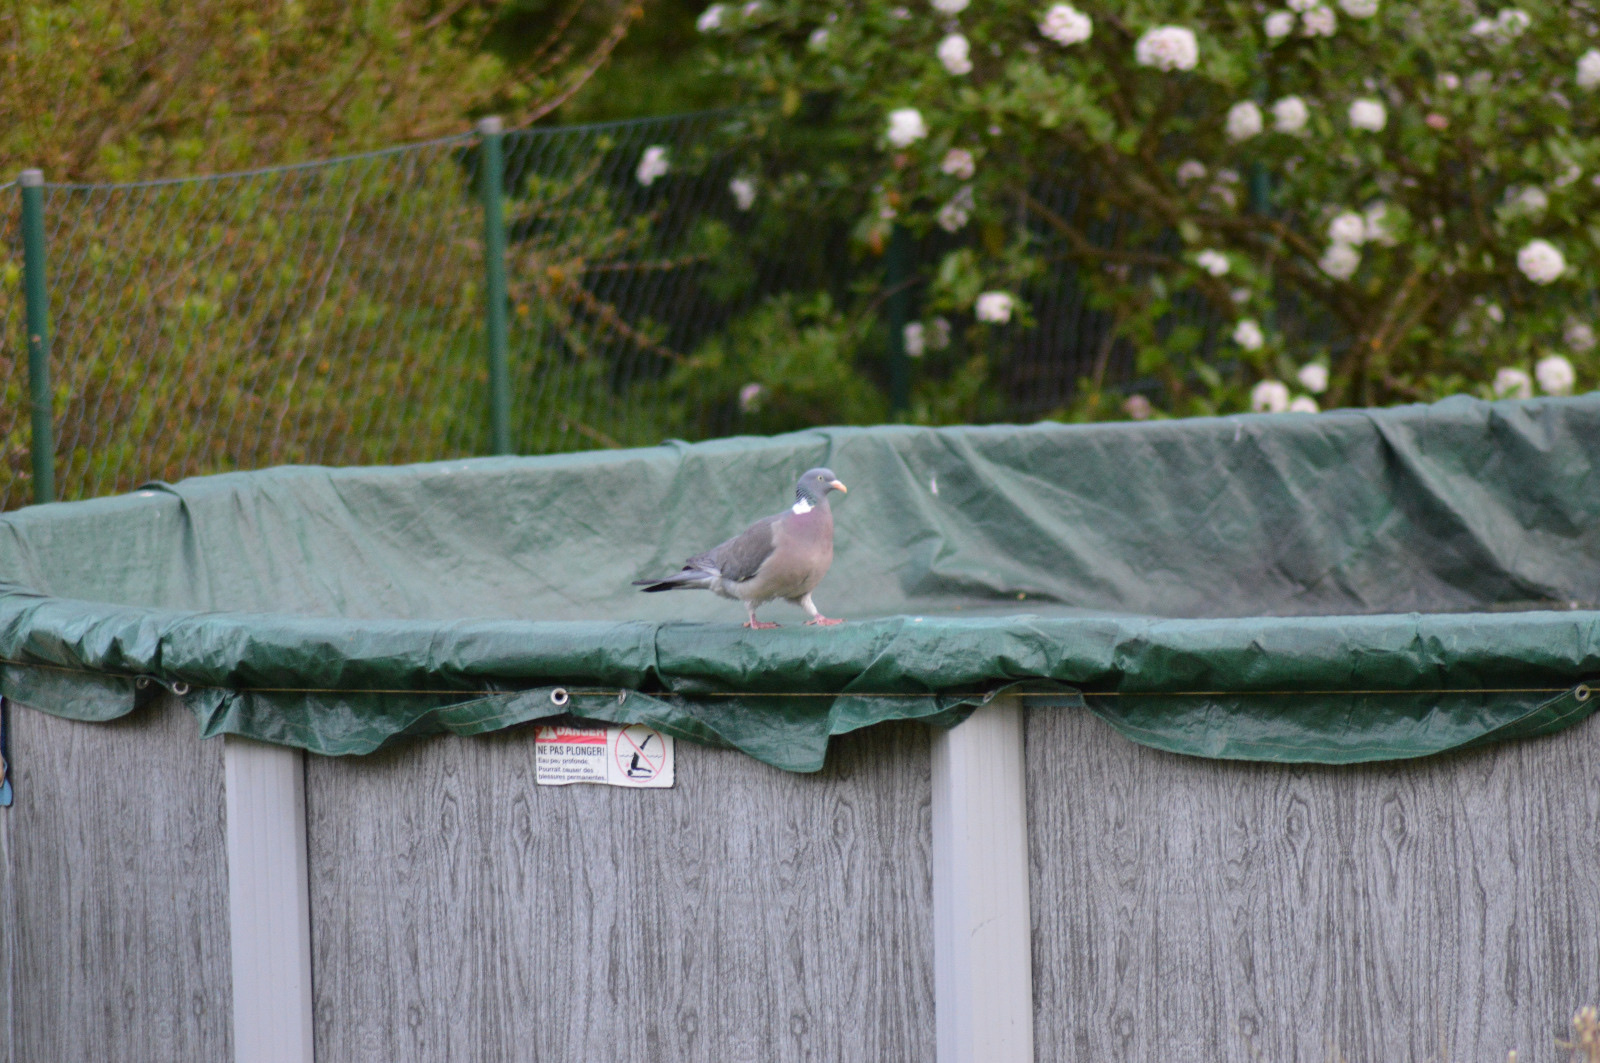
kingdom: Animalia
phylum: Chordata
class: Aves
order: Columbiformes
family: Columbidae
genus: Columba
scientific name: Columba palumbus
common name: Common wood pigeon
